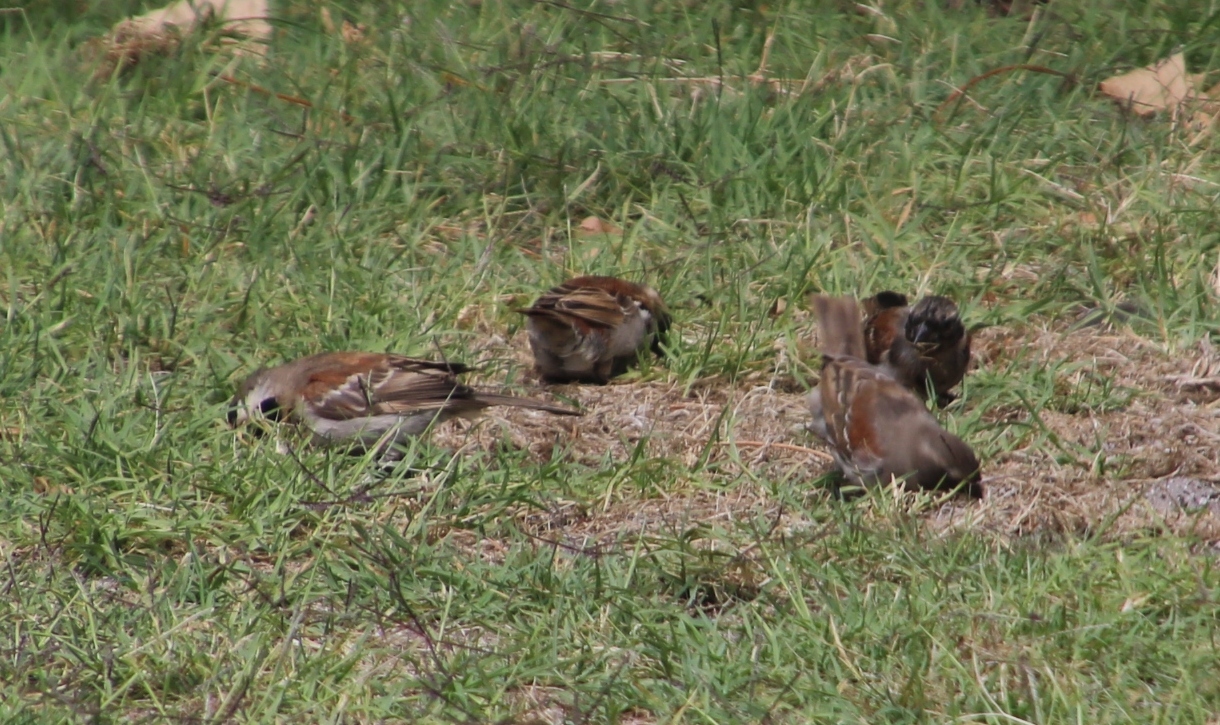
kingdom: Animalia
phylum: Chordata
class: Aves
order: Passeriformes
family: Passeridae
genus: Passer
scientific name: Passer melanurus
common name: Cape sparrow
